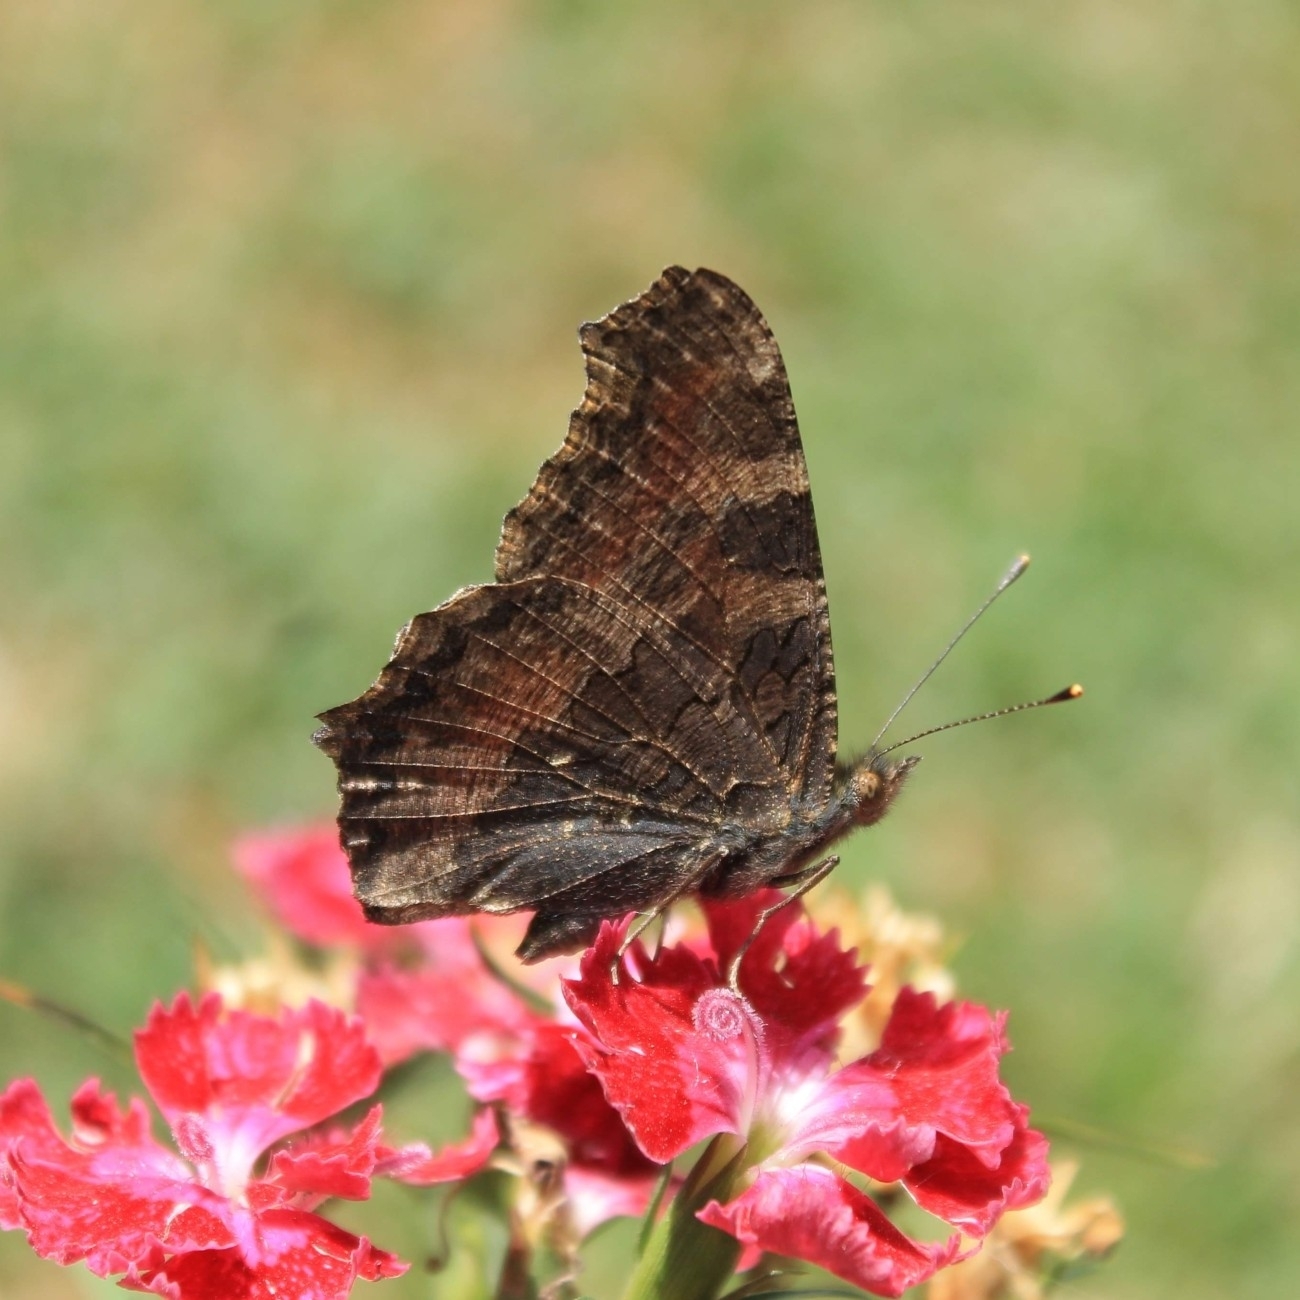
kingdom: Animalia
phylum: Arthropoda
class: Insecta
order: Lepidoptera
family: Nymphalidae
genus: Aglais
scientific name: Aglais caschmirensis
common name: Indian tortoiseshell
